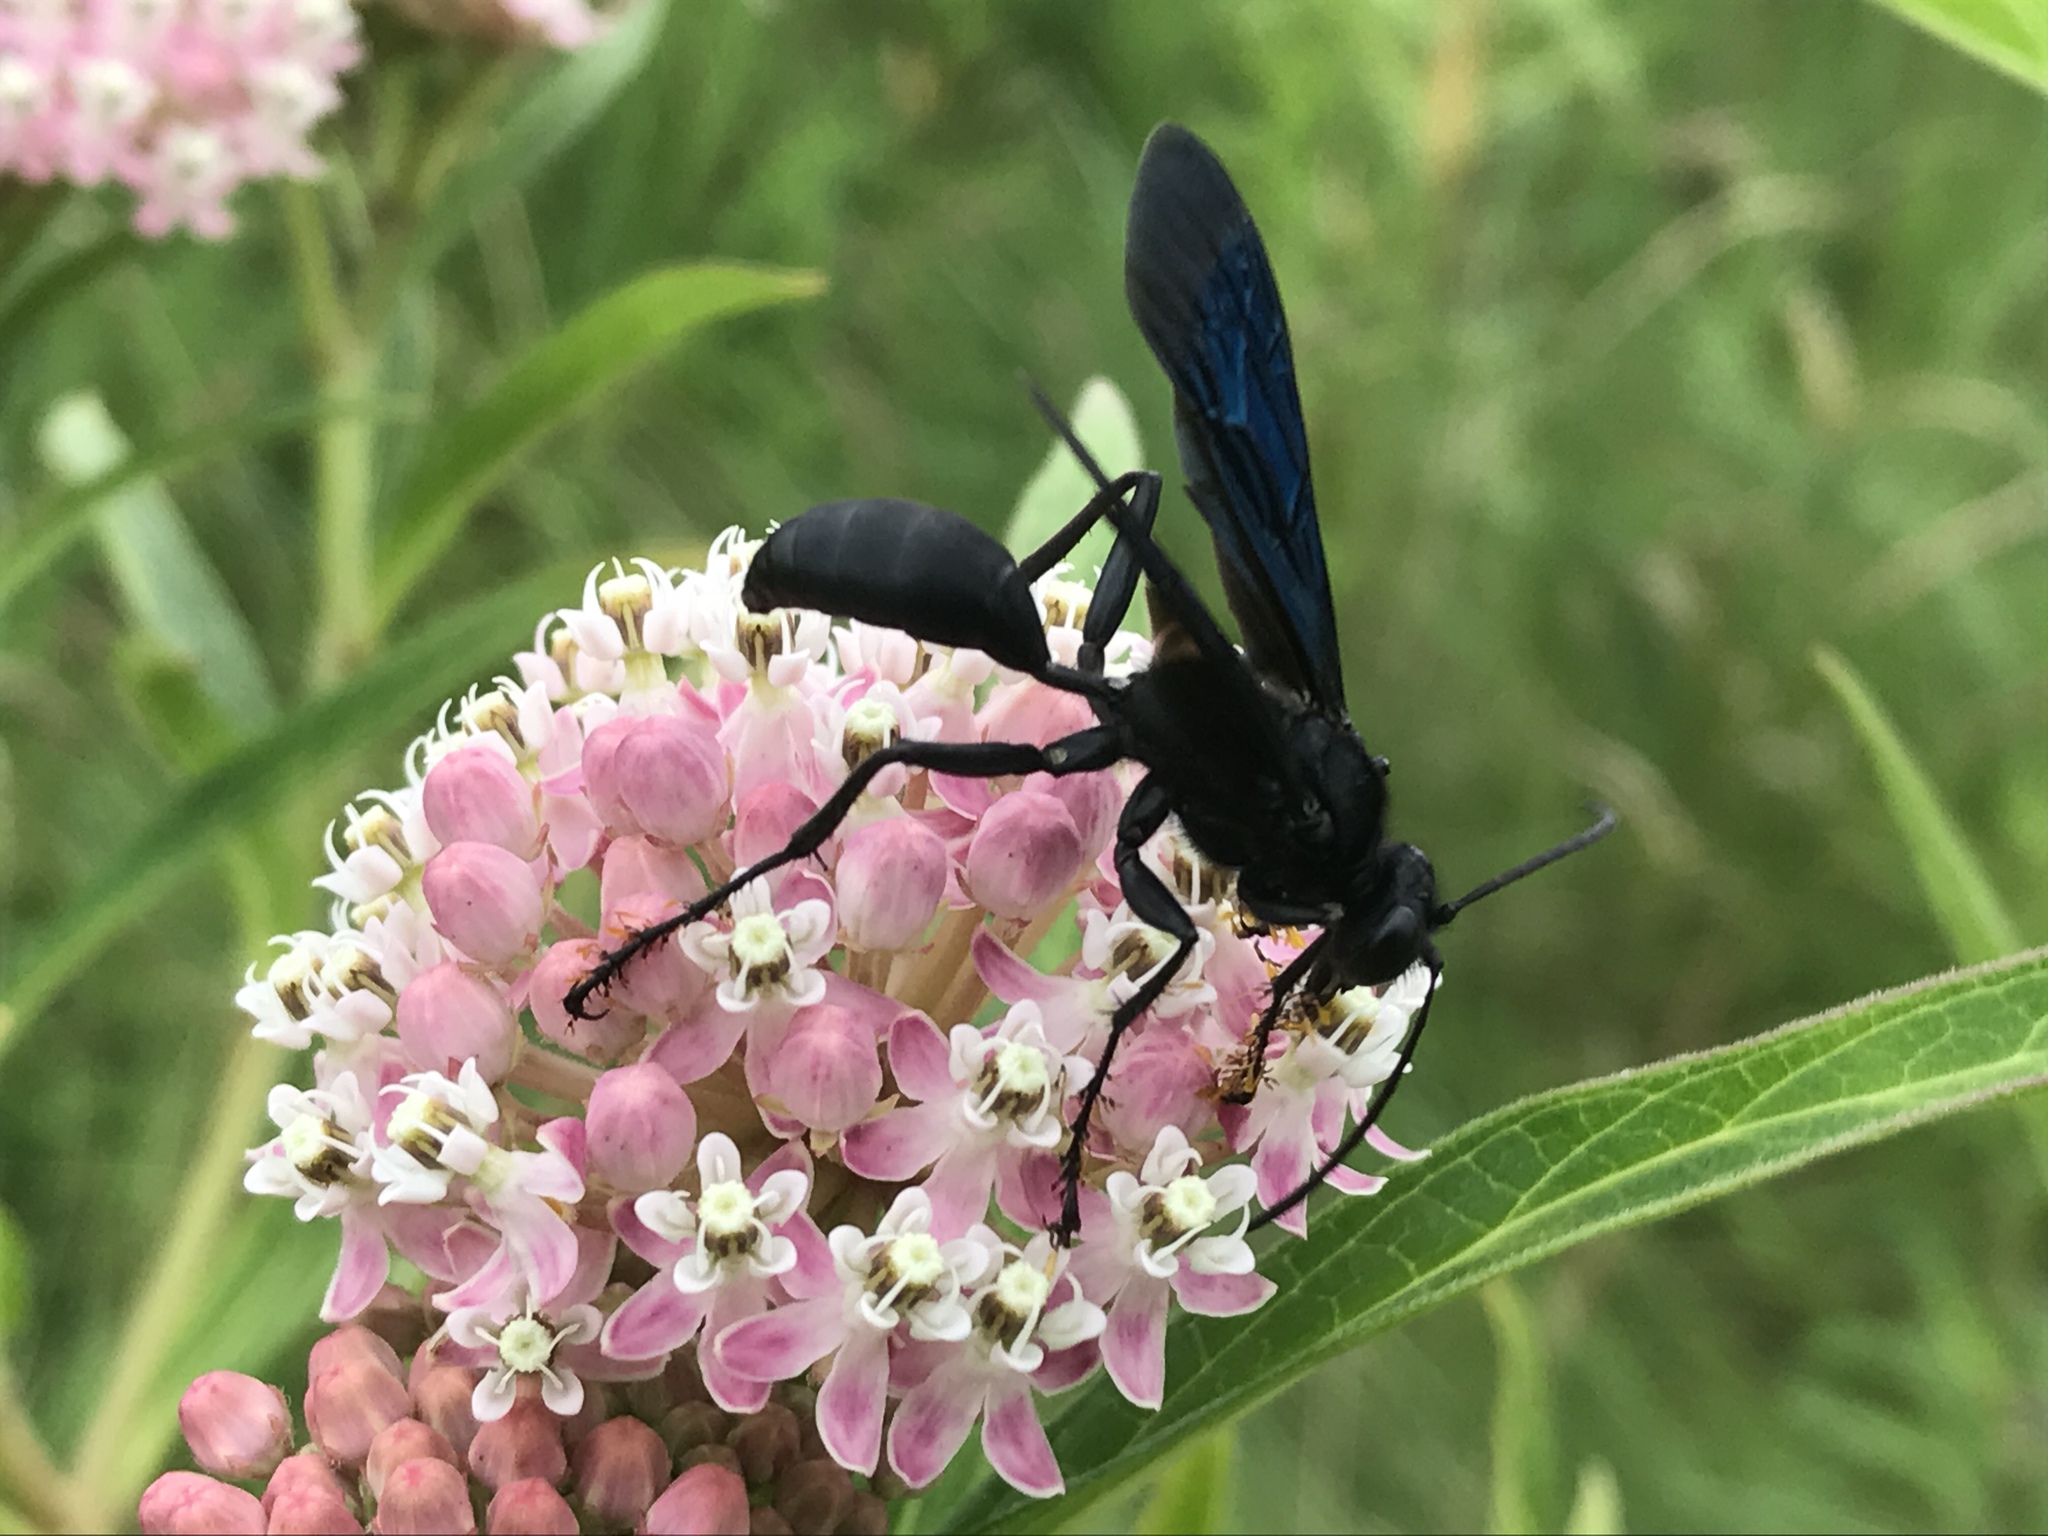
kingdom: Animalia
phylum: Arthropoda
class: Insecta
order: Hymenoptera
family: Sphecidae
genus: Sphex
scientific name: Sphex pensylvanicus
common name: Great black digger wasp
